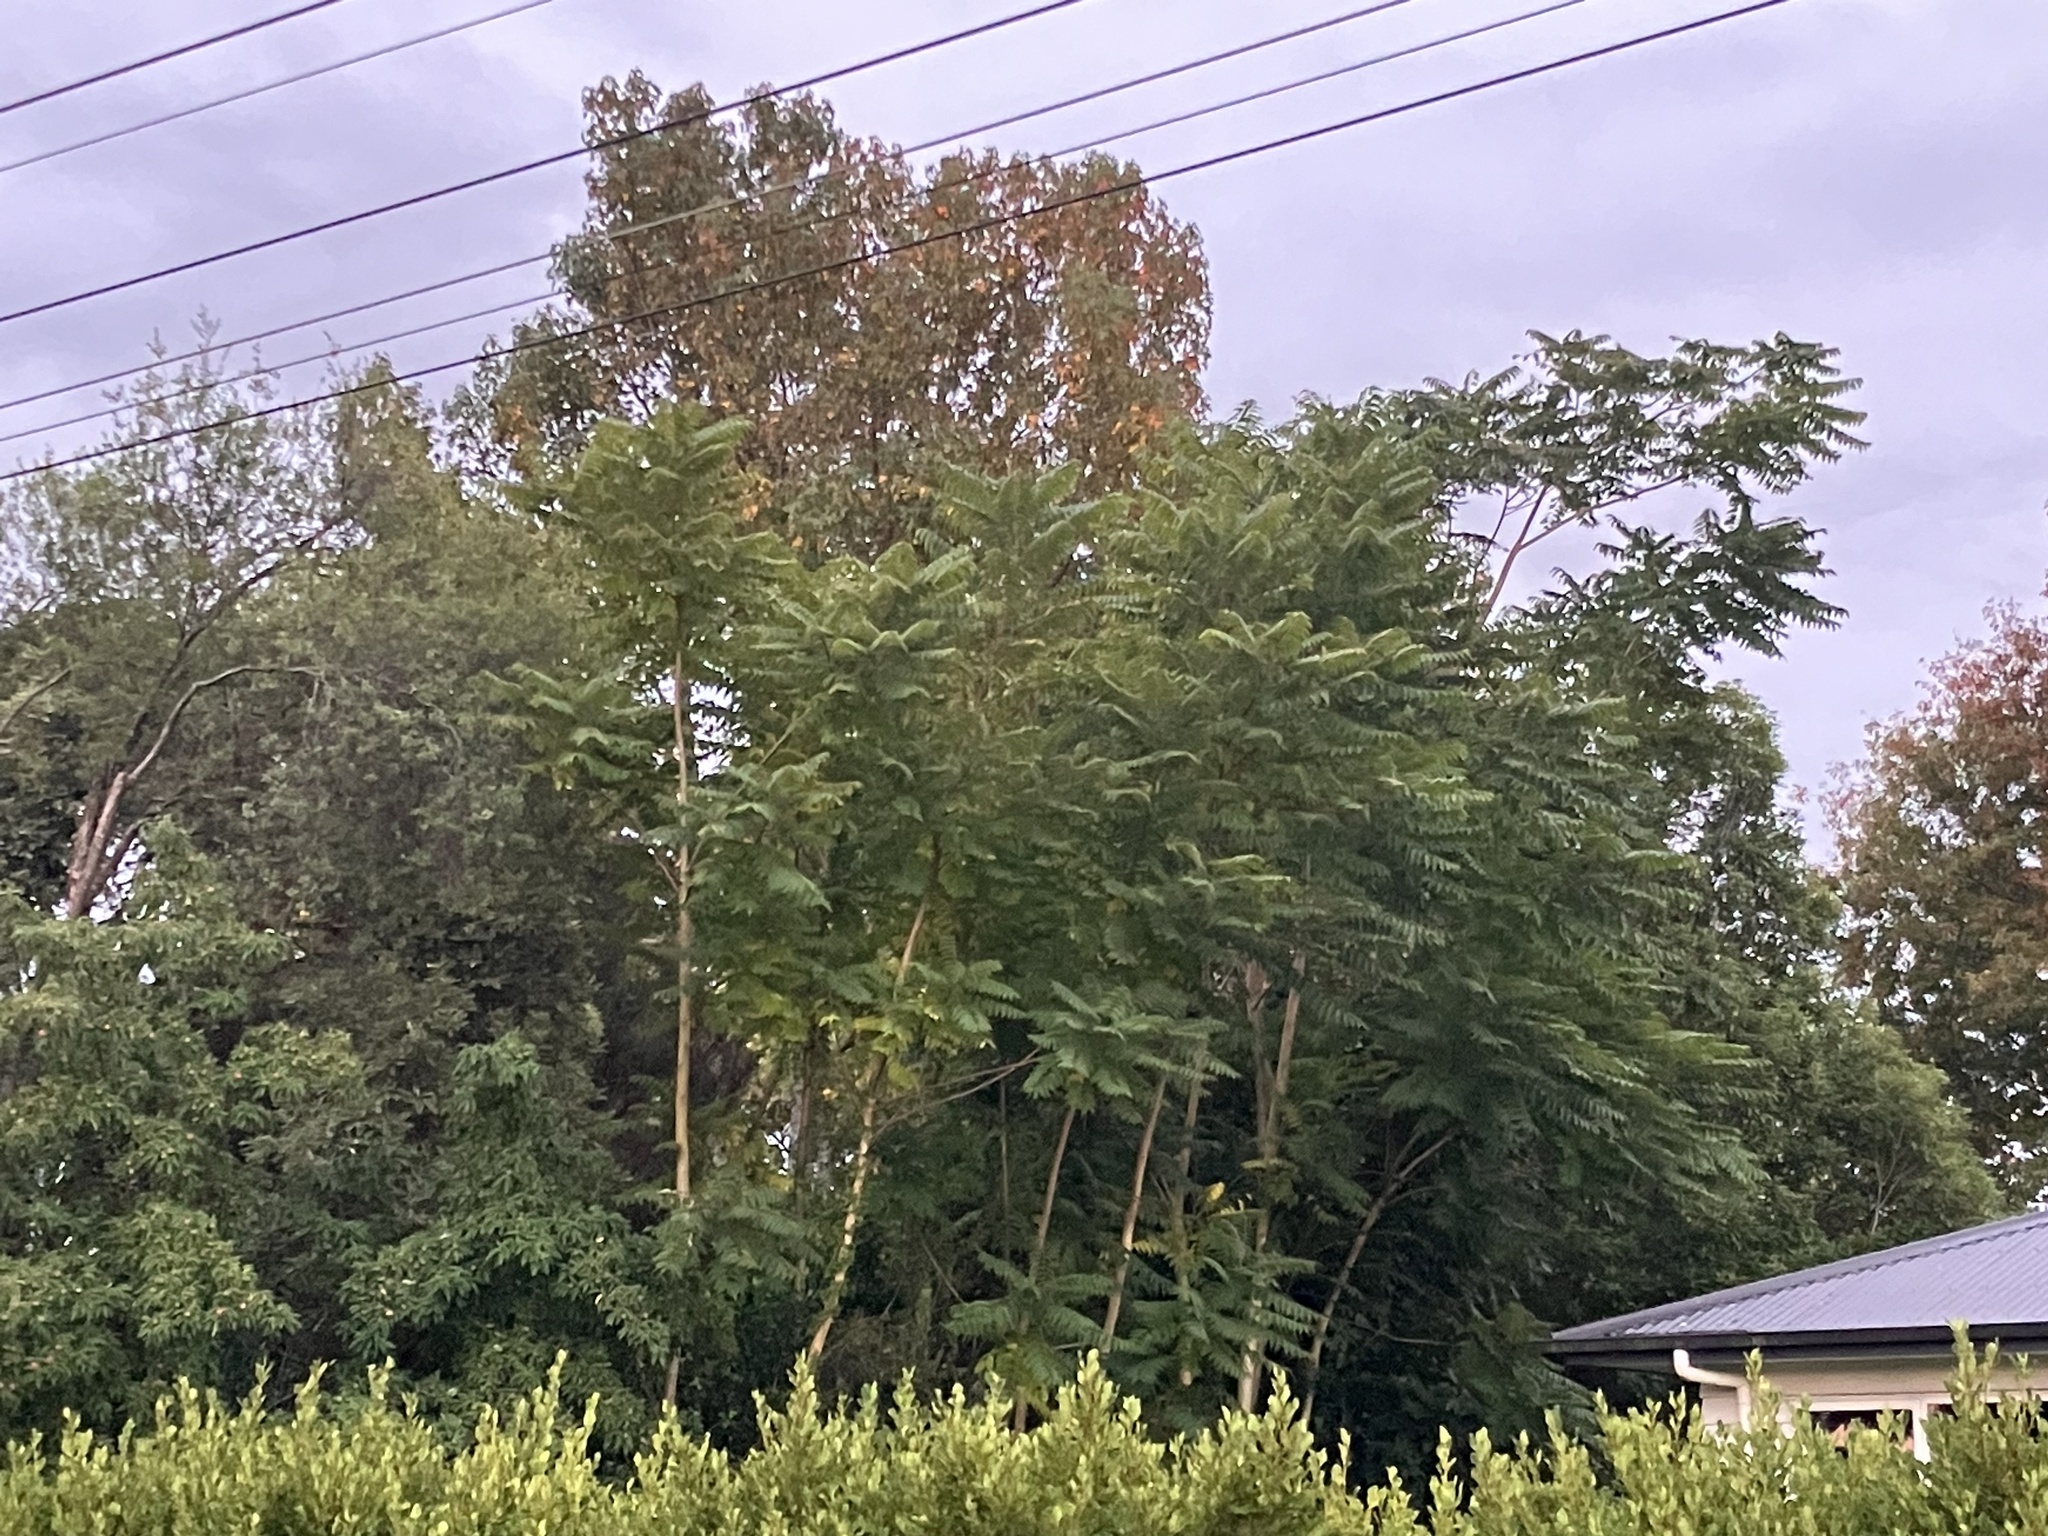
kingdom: Plantae
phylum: Tracheophyta
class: Magnoliopsida
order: Sapindales
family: Simaroubaceae
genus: Ailanthus
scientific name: Ailanthus altissima
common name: Tree-of-heaven
